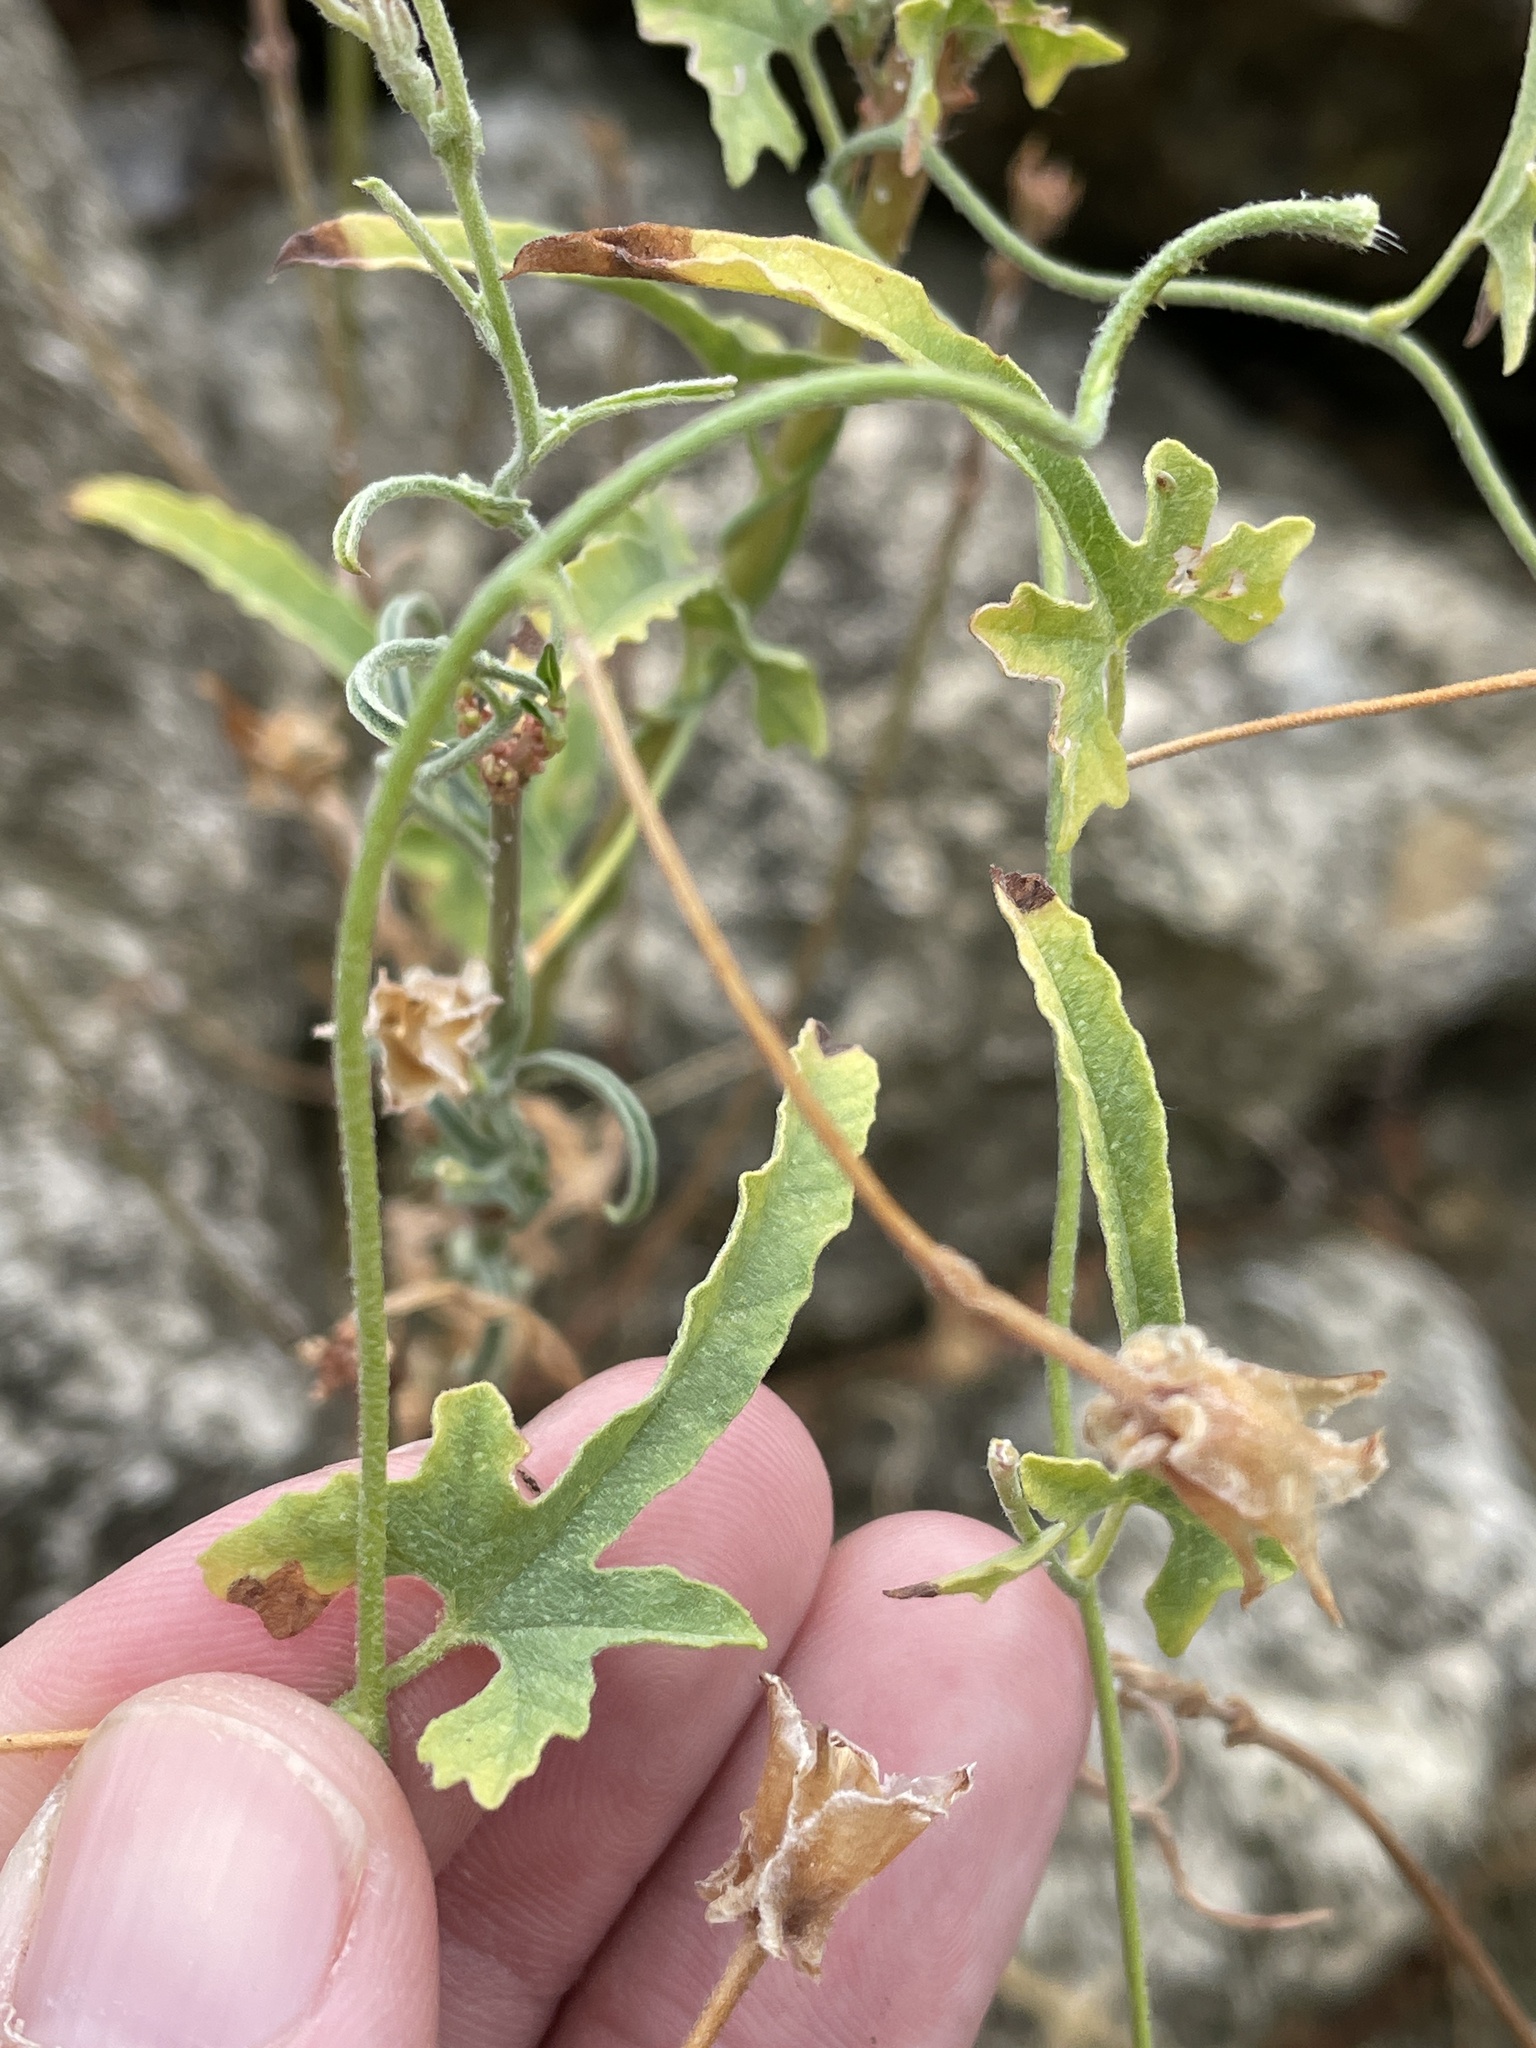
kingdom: Plantae
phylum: Tracheophyta
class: Magnoliopsida
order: Solanales
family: Convolvulaceae
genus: Convolvulus
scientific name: Convolvulus equitans
